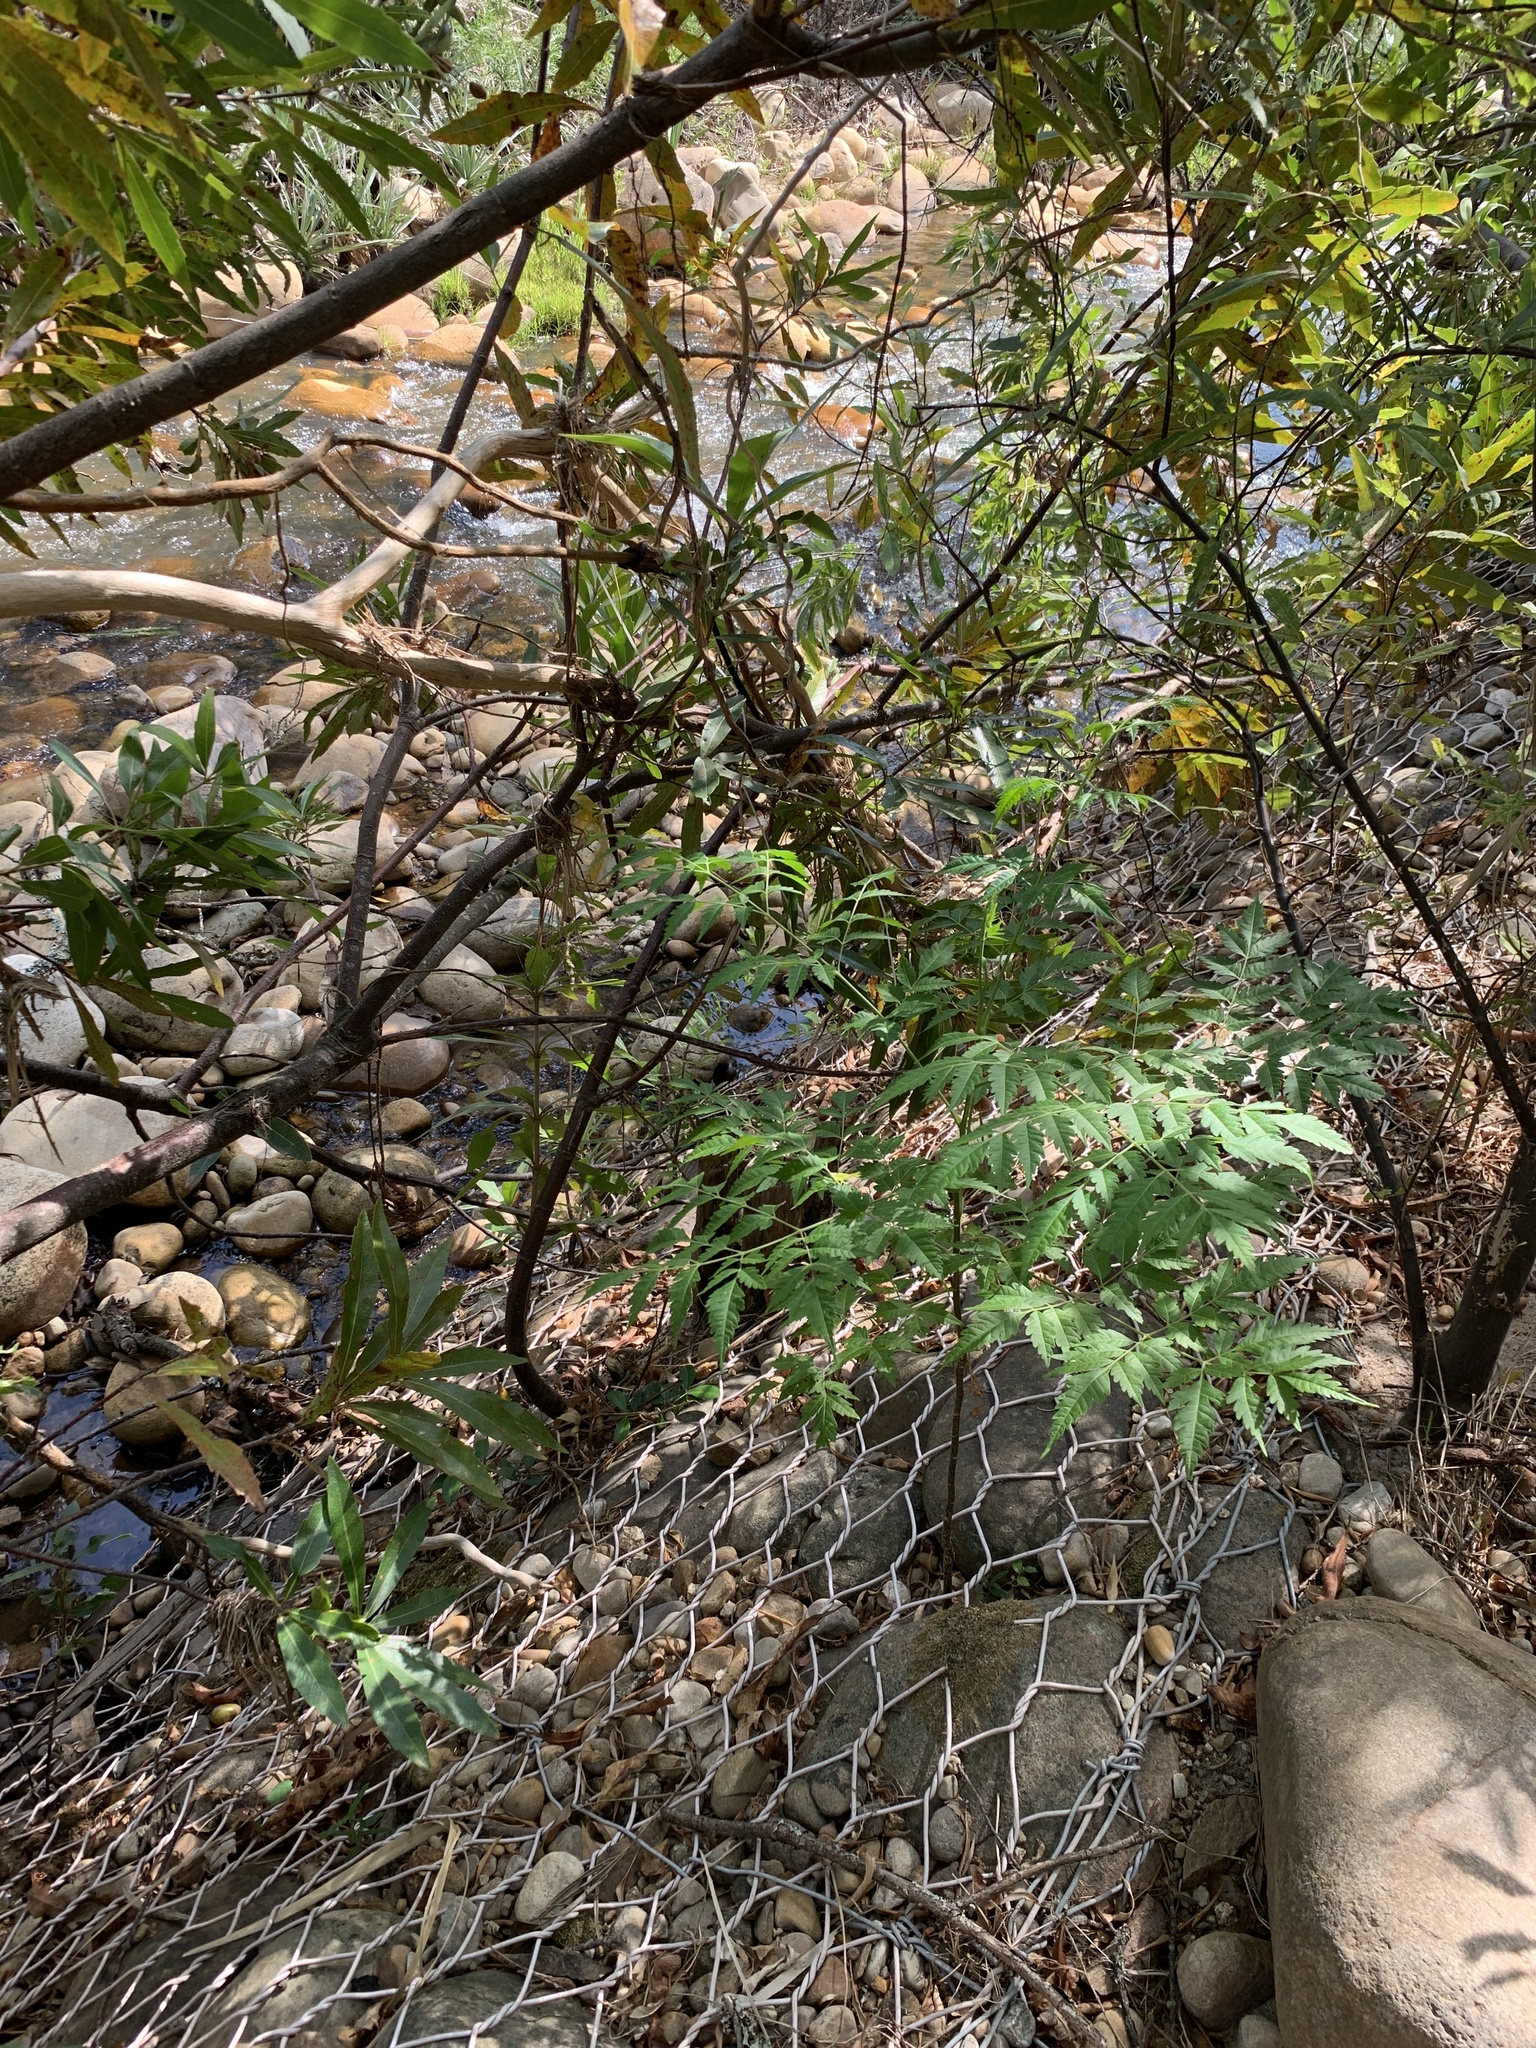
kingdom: Plantae
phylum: Tracheophyta
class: Magnoliopsida
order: Sapindales
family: Meliaceae
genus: Melia
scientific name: Melia azedarach
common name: Chinaberrytree
